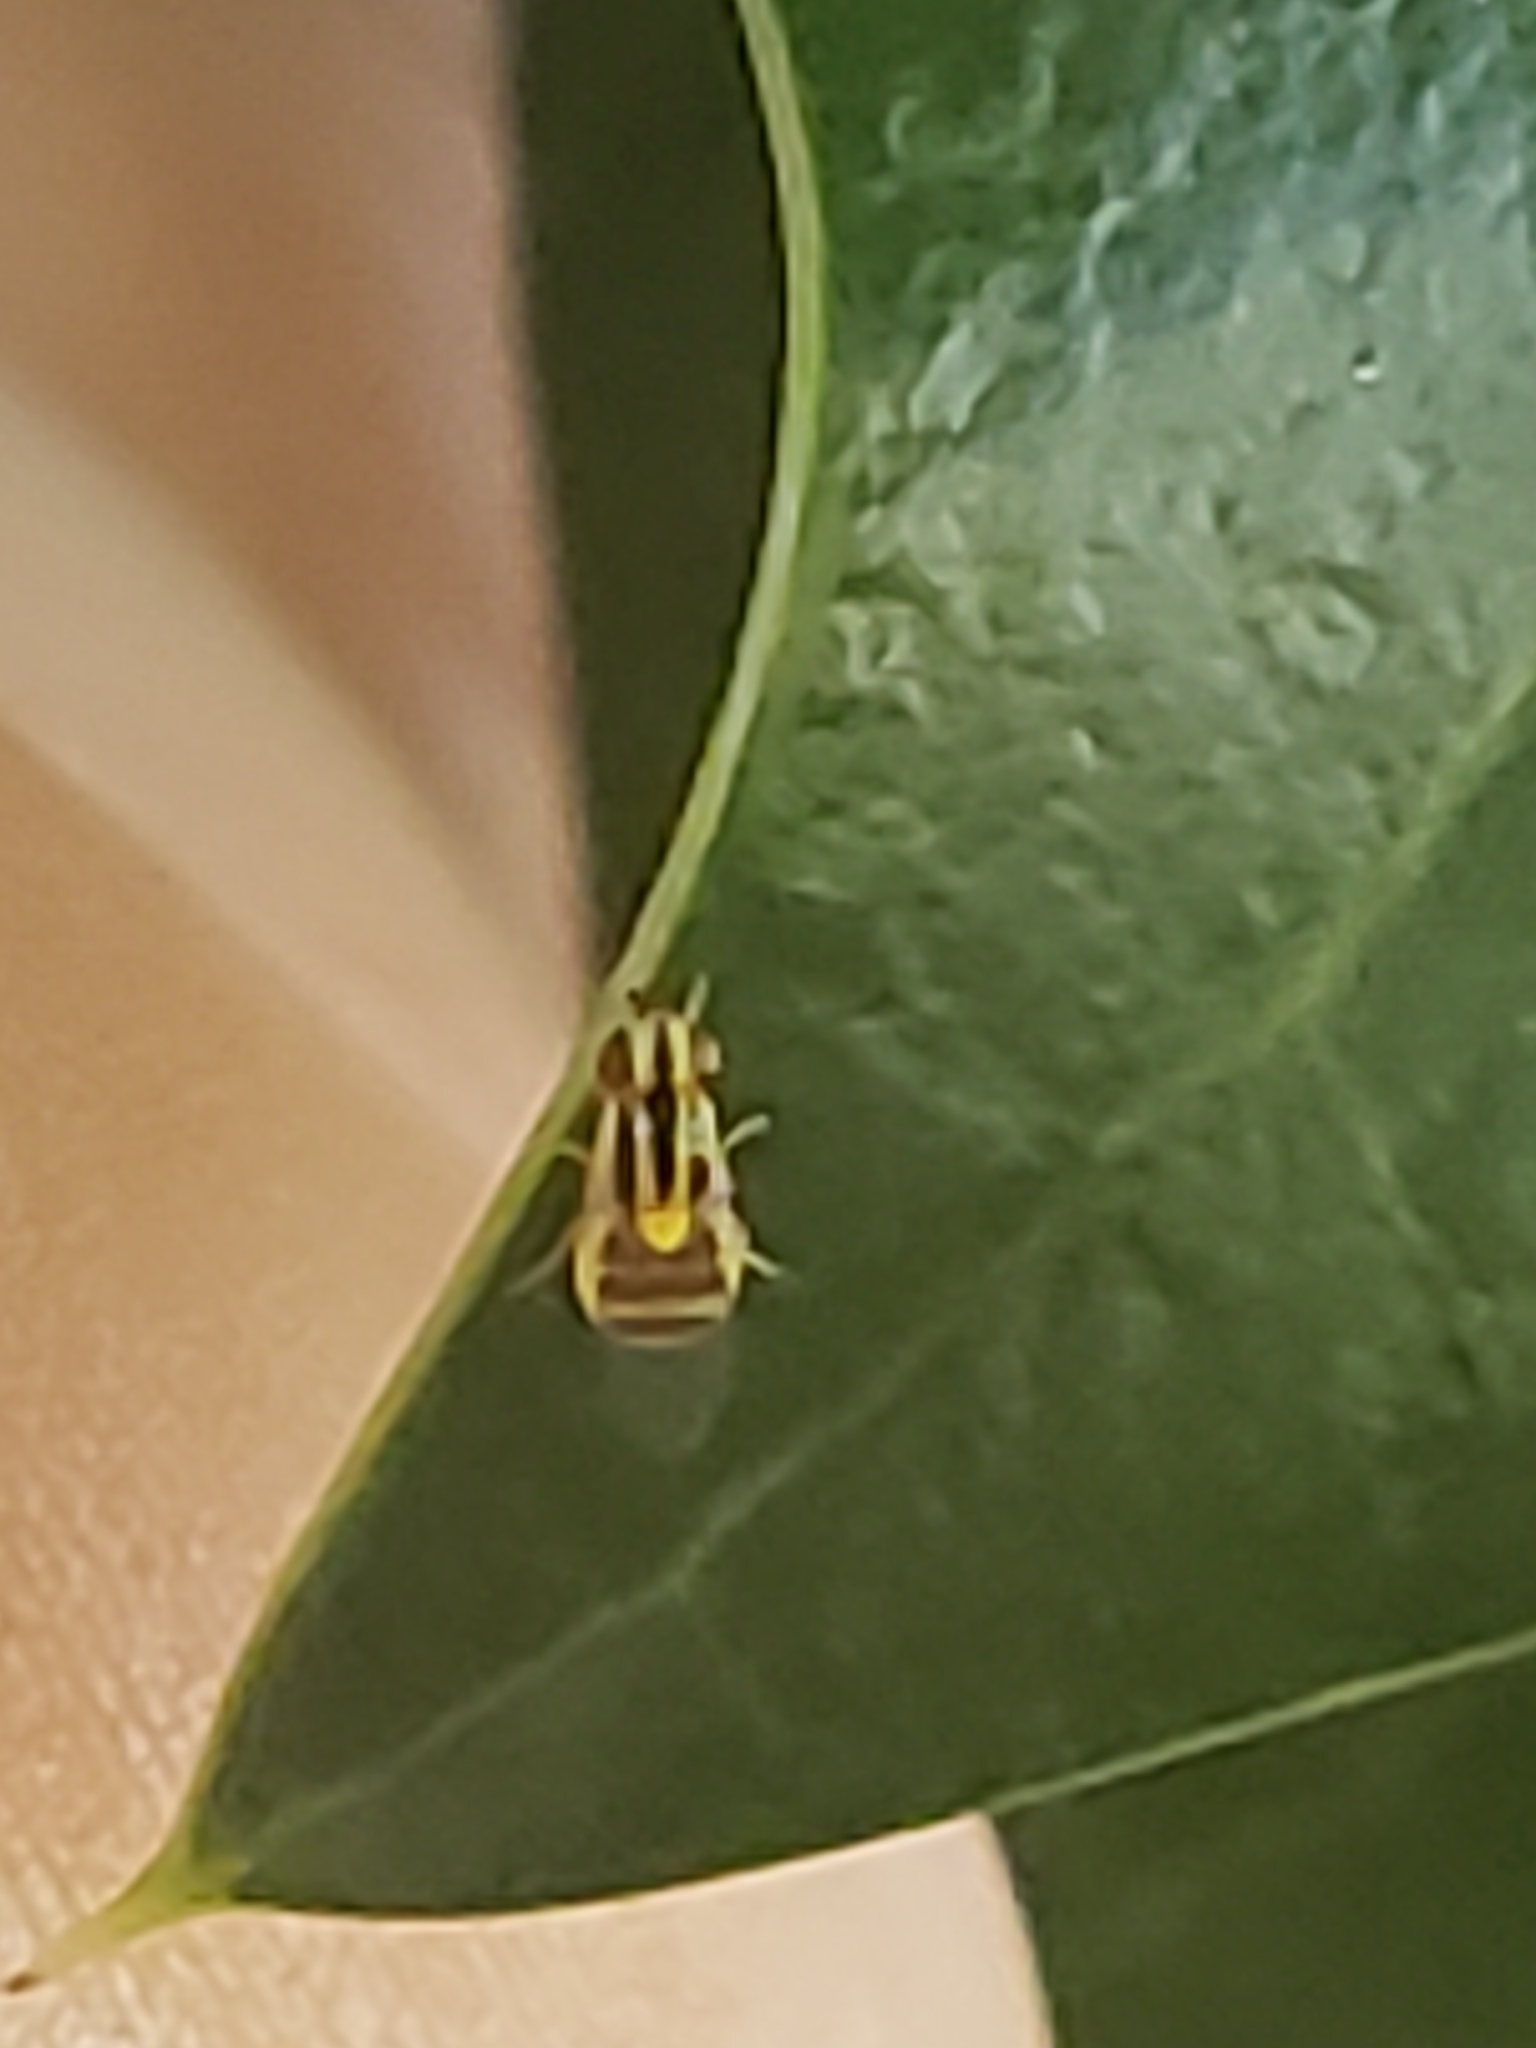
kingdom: Animalia
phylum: Arthropoda
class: Insecta
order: Diptera
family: Chloropidae
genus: Thaumatomyia
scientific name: Thaumatomyia glabra
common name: Chloropid fly
